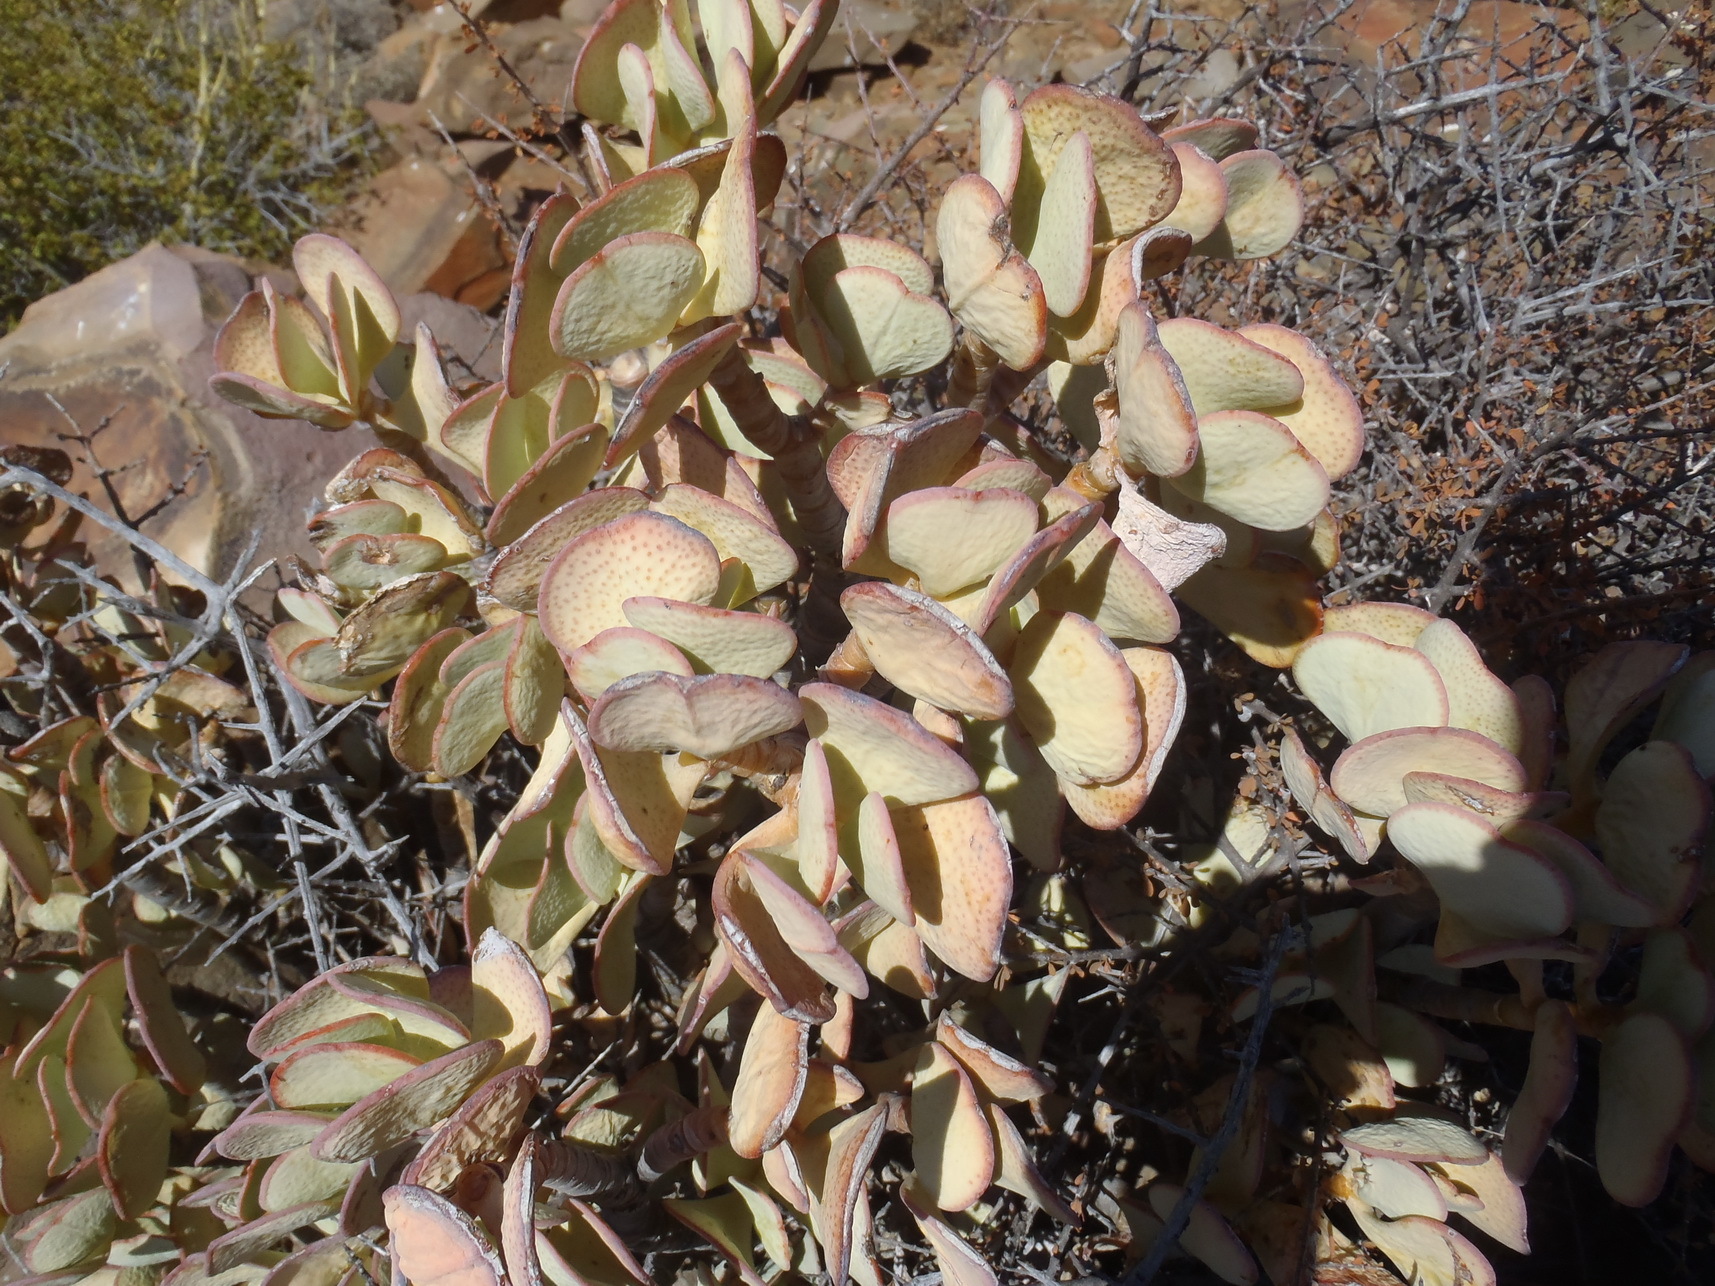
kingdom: Plantae
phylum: Tracheophyta
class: Magnoliopsida
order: Saxifragales
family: Crassulaceae
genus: Crassula
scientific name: Crassula arborescens
